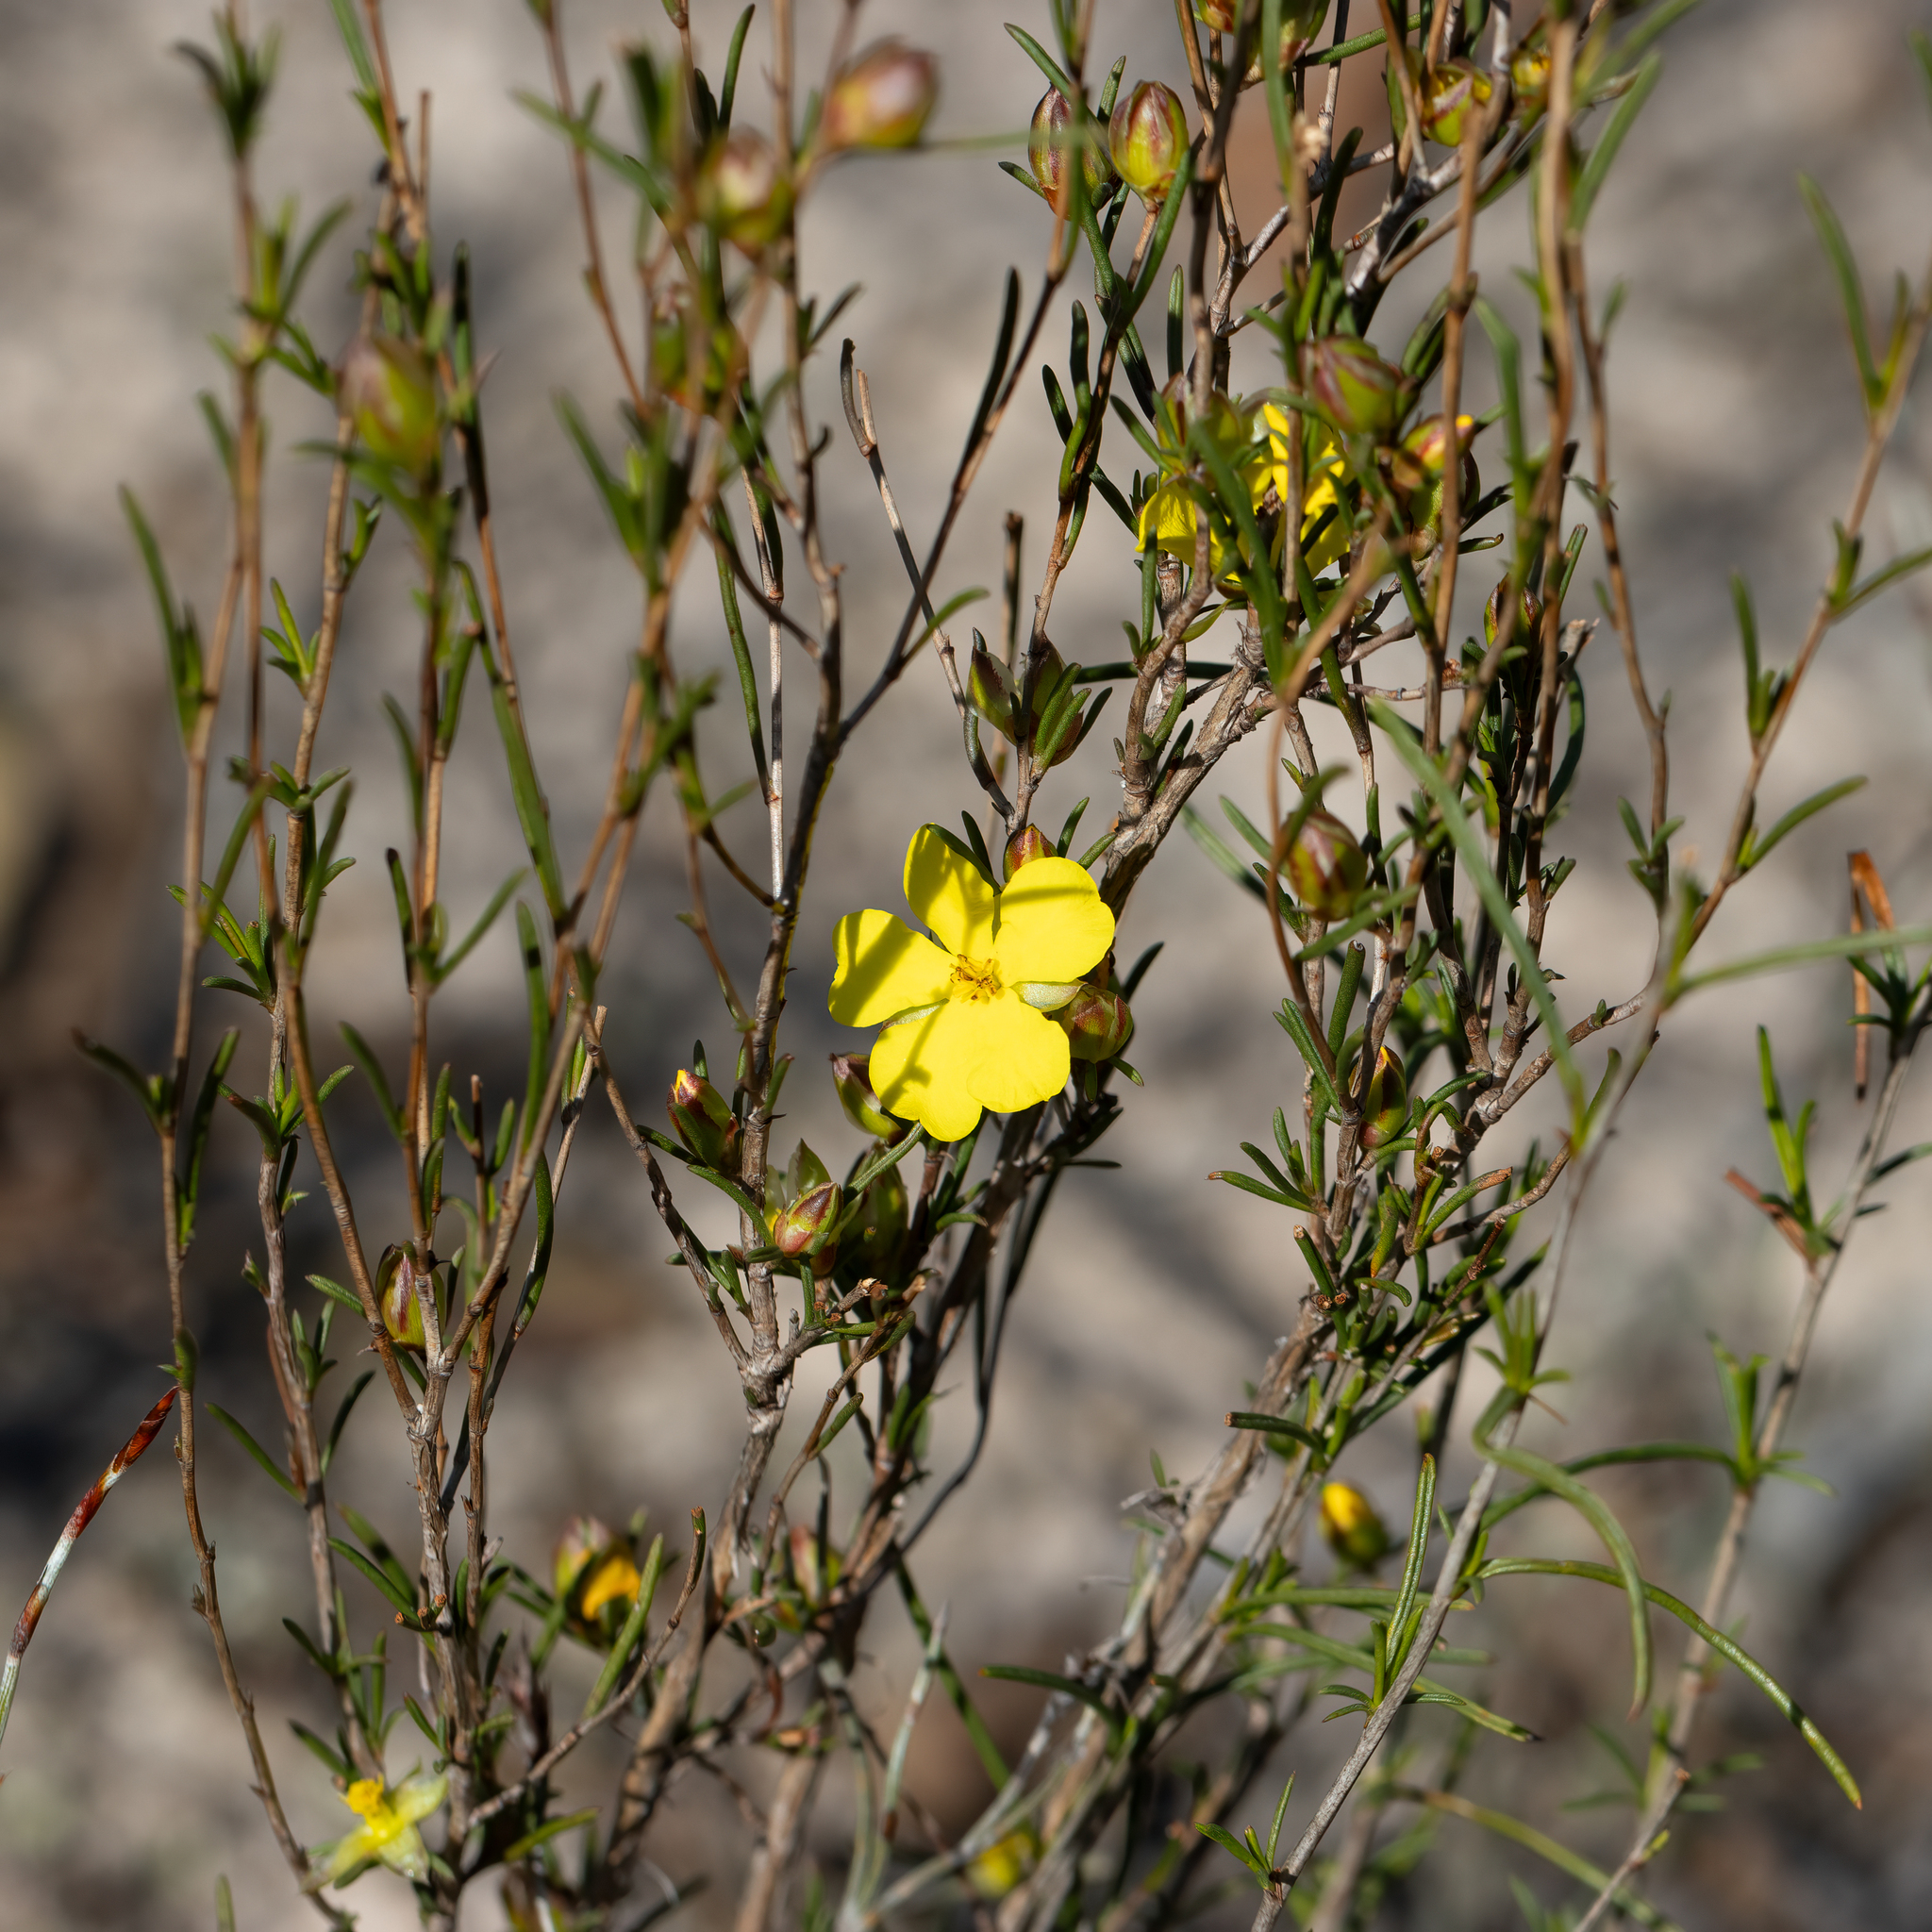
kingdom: Plantae
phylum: Tracheophyta
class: Magnoliopsida
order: Dilleniales
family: Dilleniaceae
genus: Hibbertia
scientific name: Hibbertia virgata
